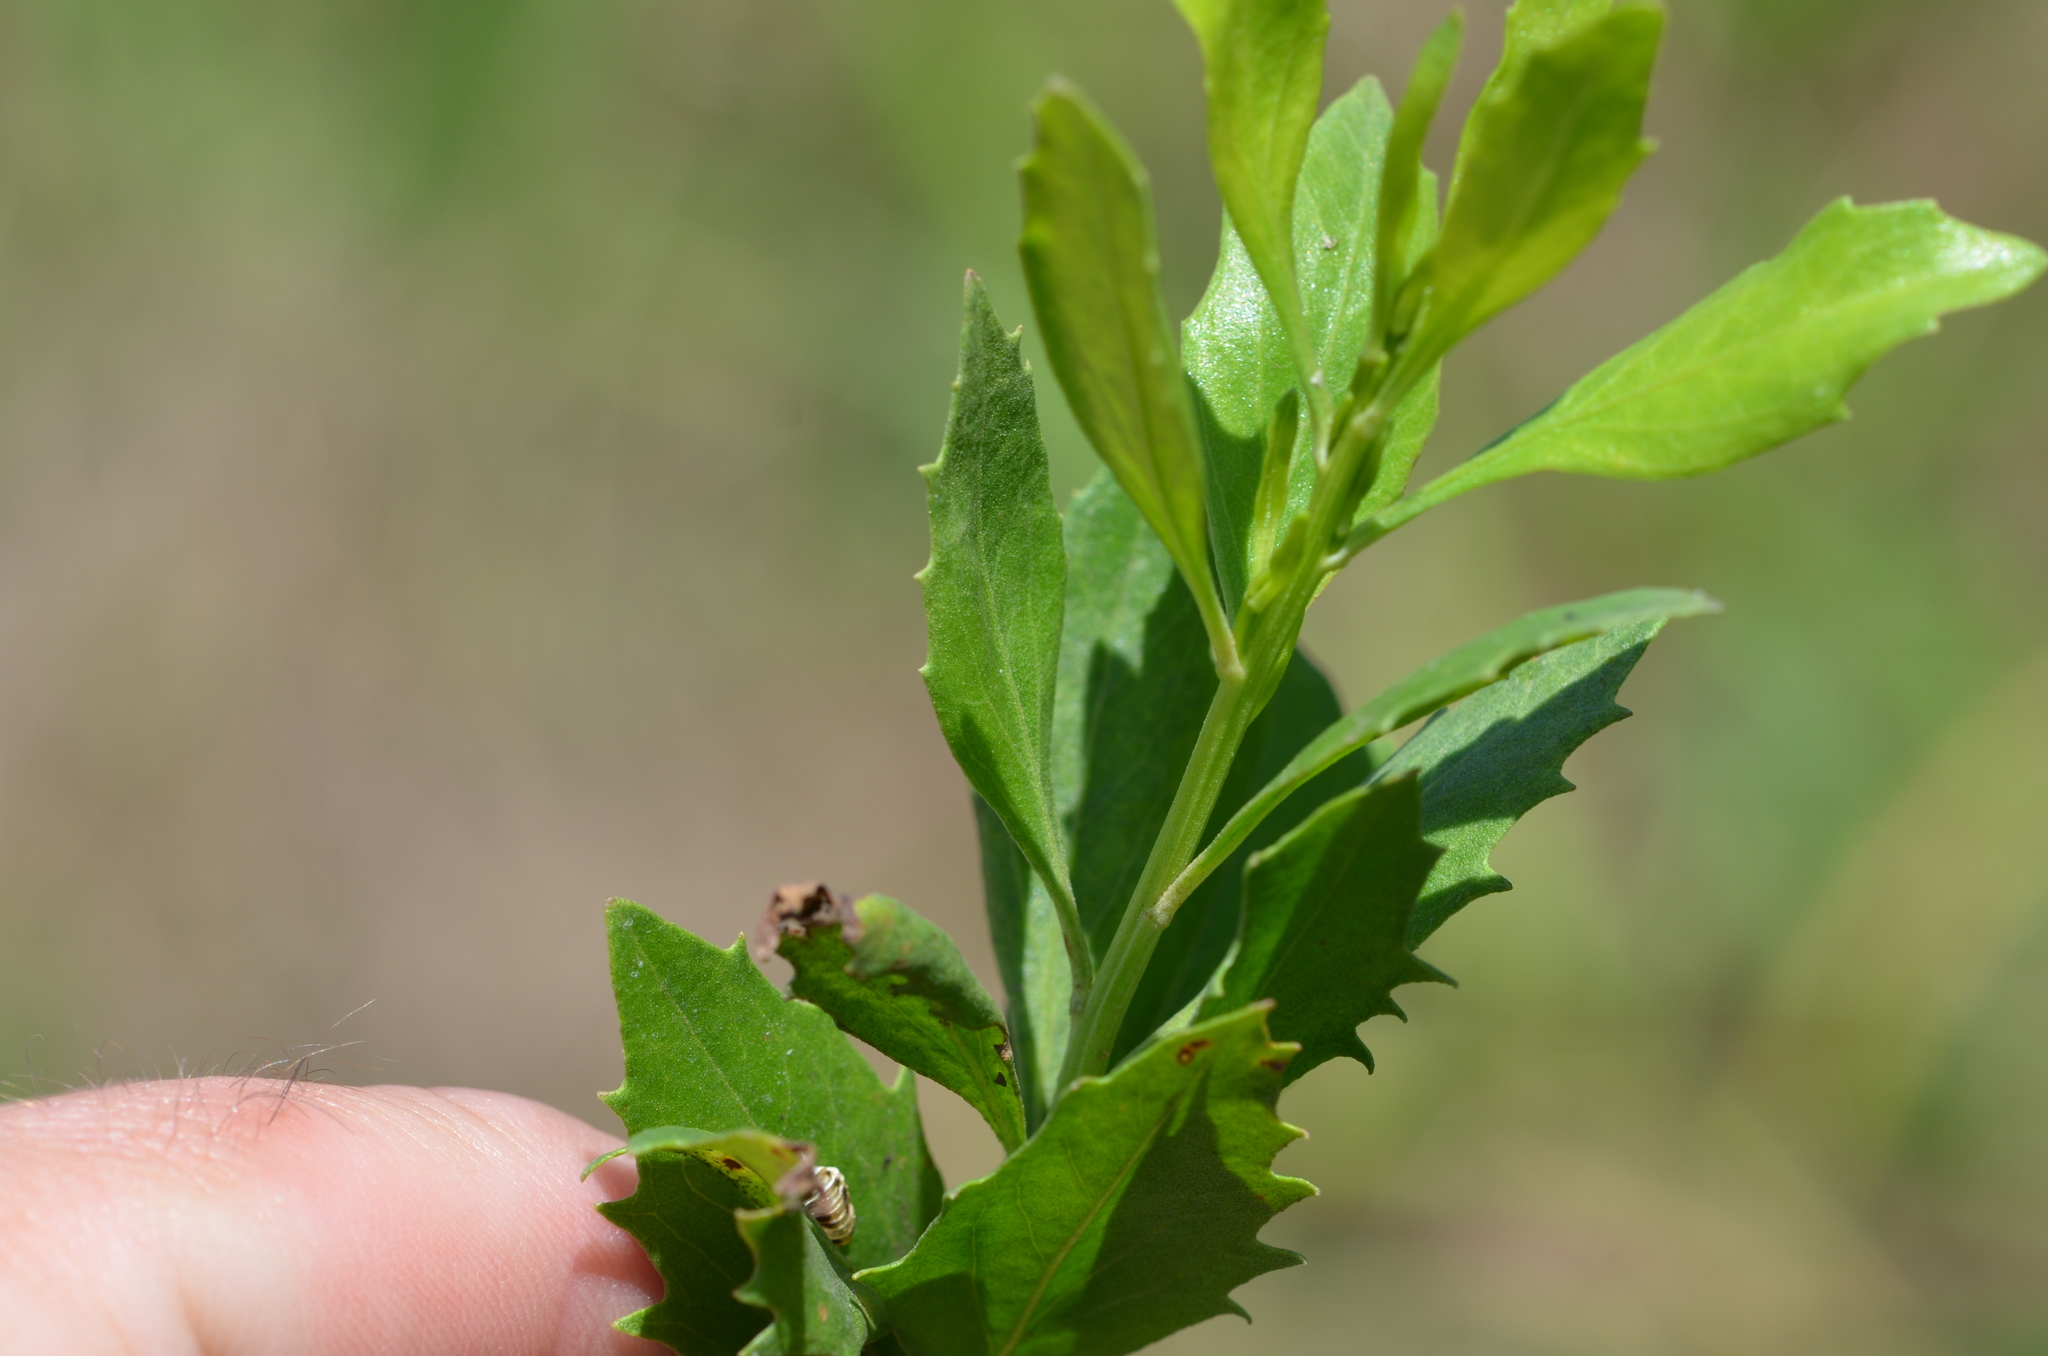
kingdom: Plantae
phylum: Tracheophyta
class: Magnoliopsida
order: Asterales
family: Asteraceae
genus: Baccharis
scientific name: Baccharis halimifolia
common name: Eastern baccharis
